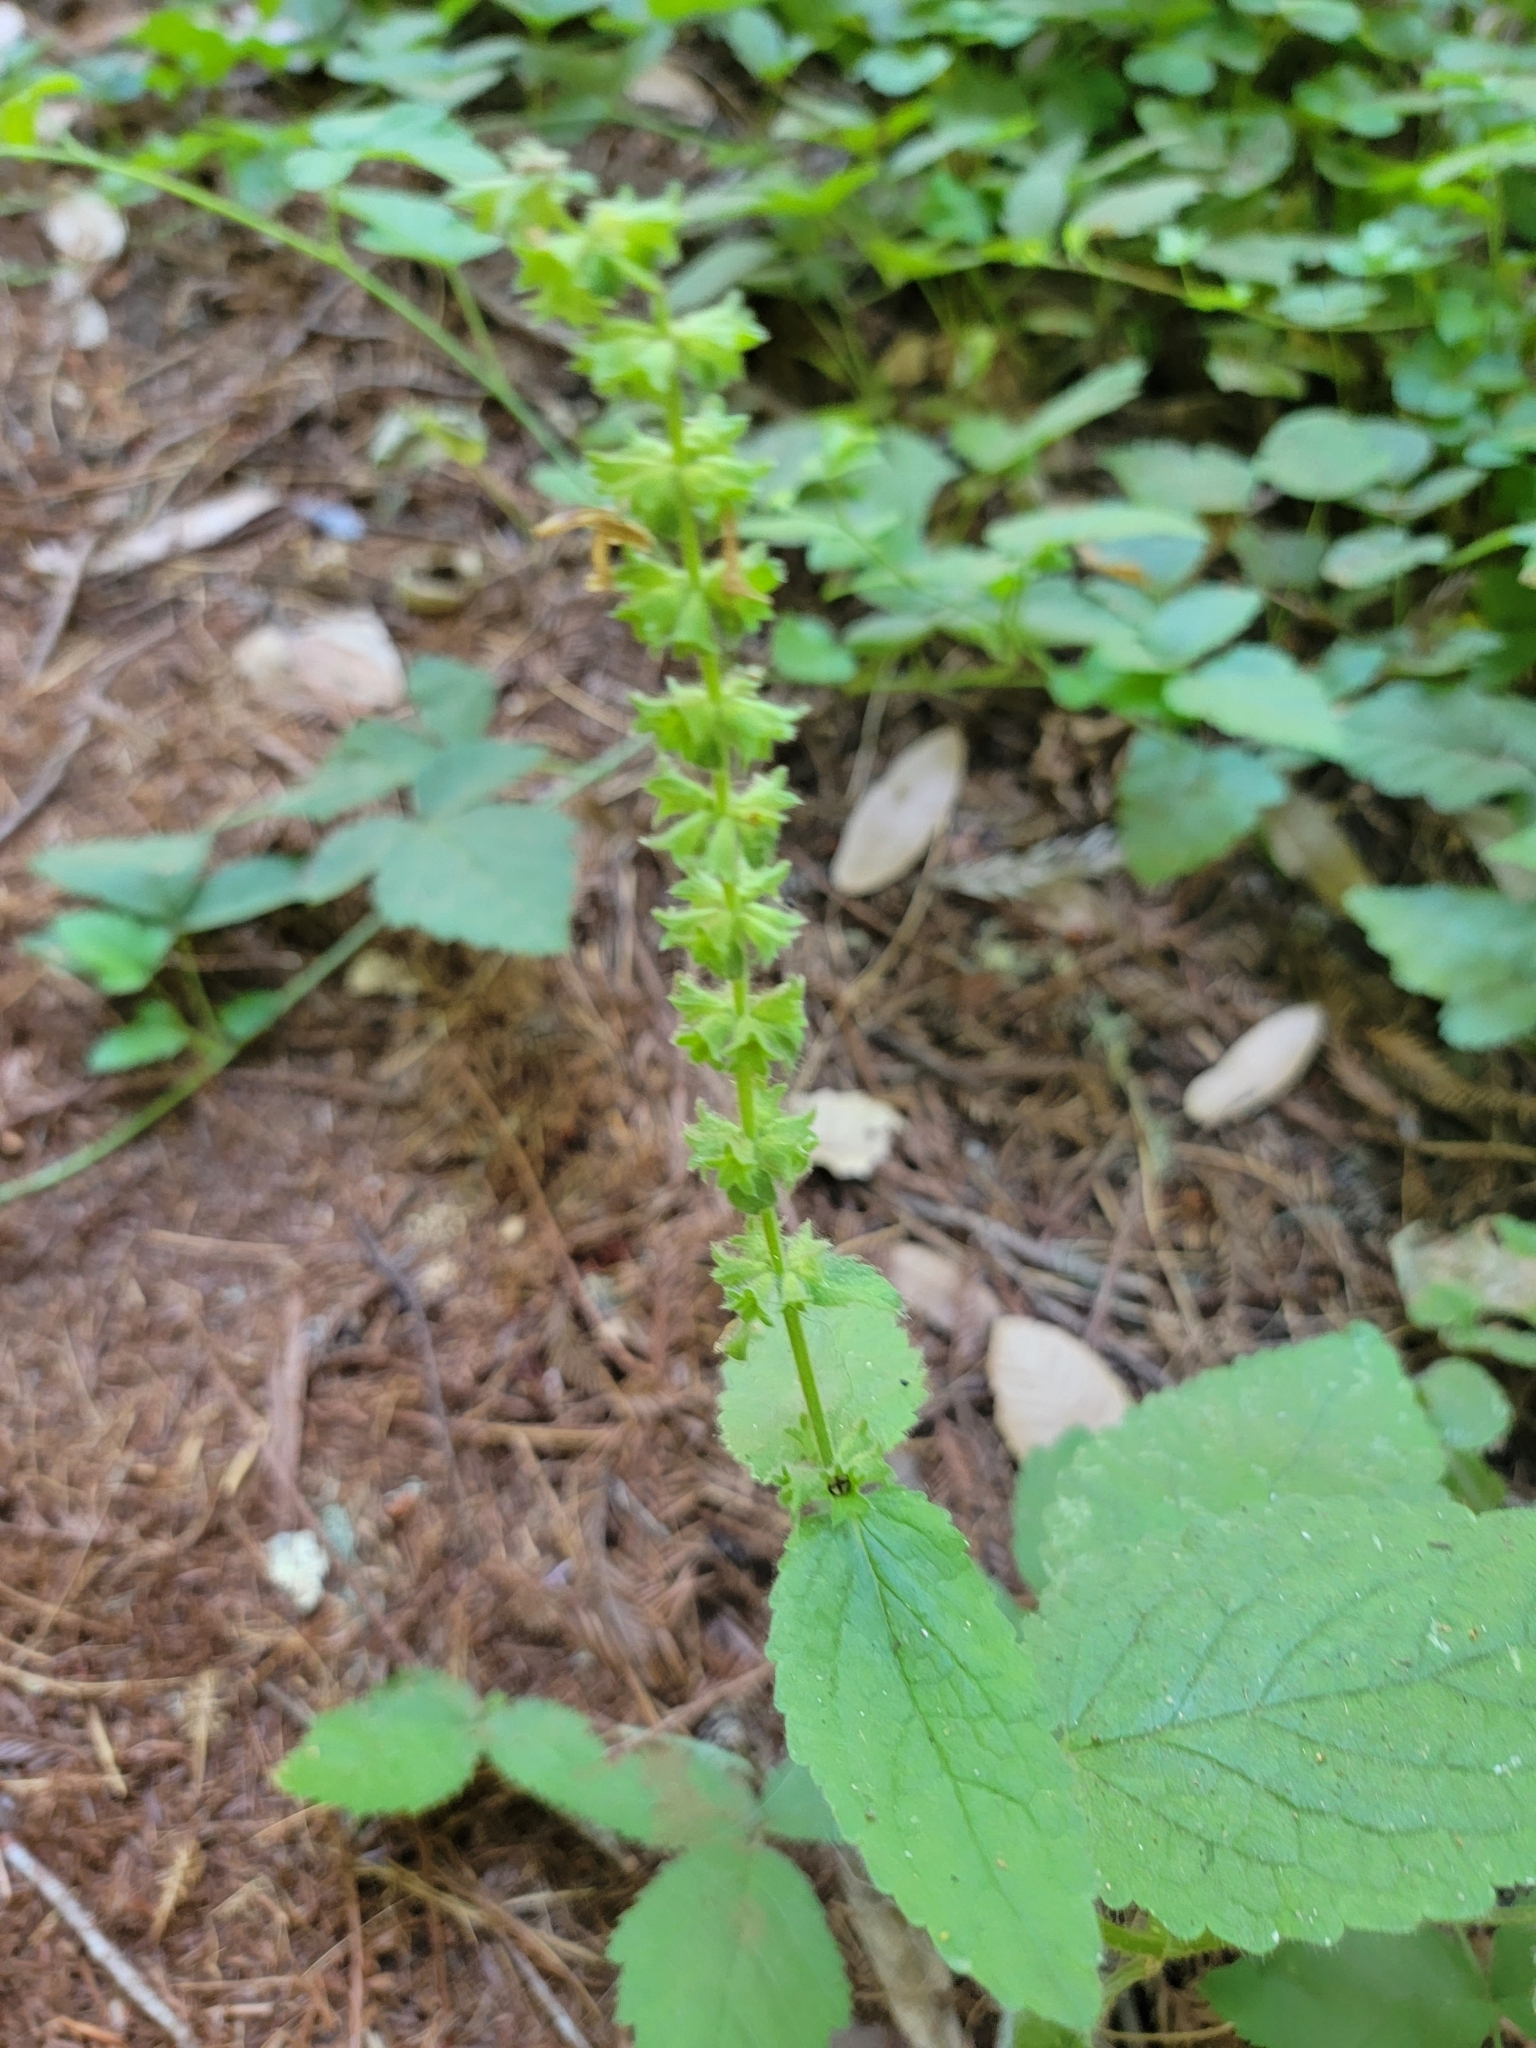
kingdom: Plantae
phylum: Tracheophyta
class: Magnoliopsida
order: Lamiales
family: Lamiaceae
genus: Stachys
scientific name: Stachys bullata
